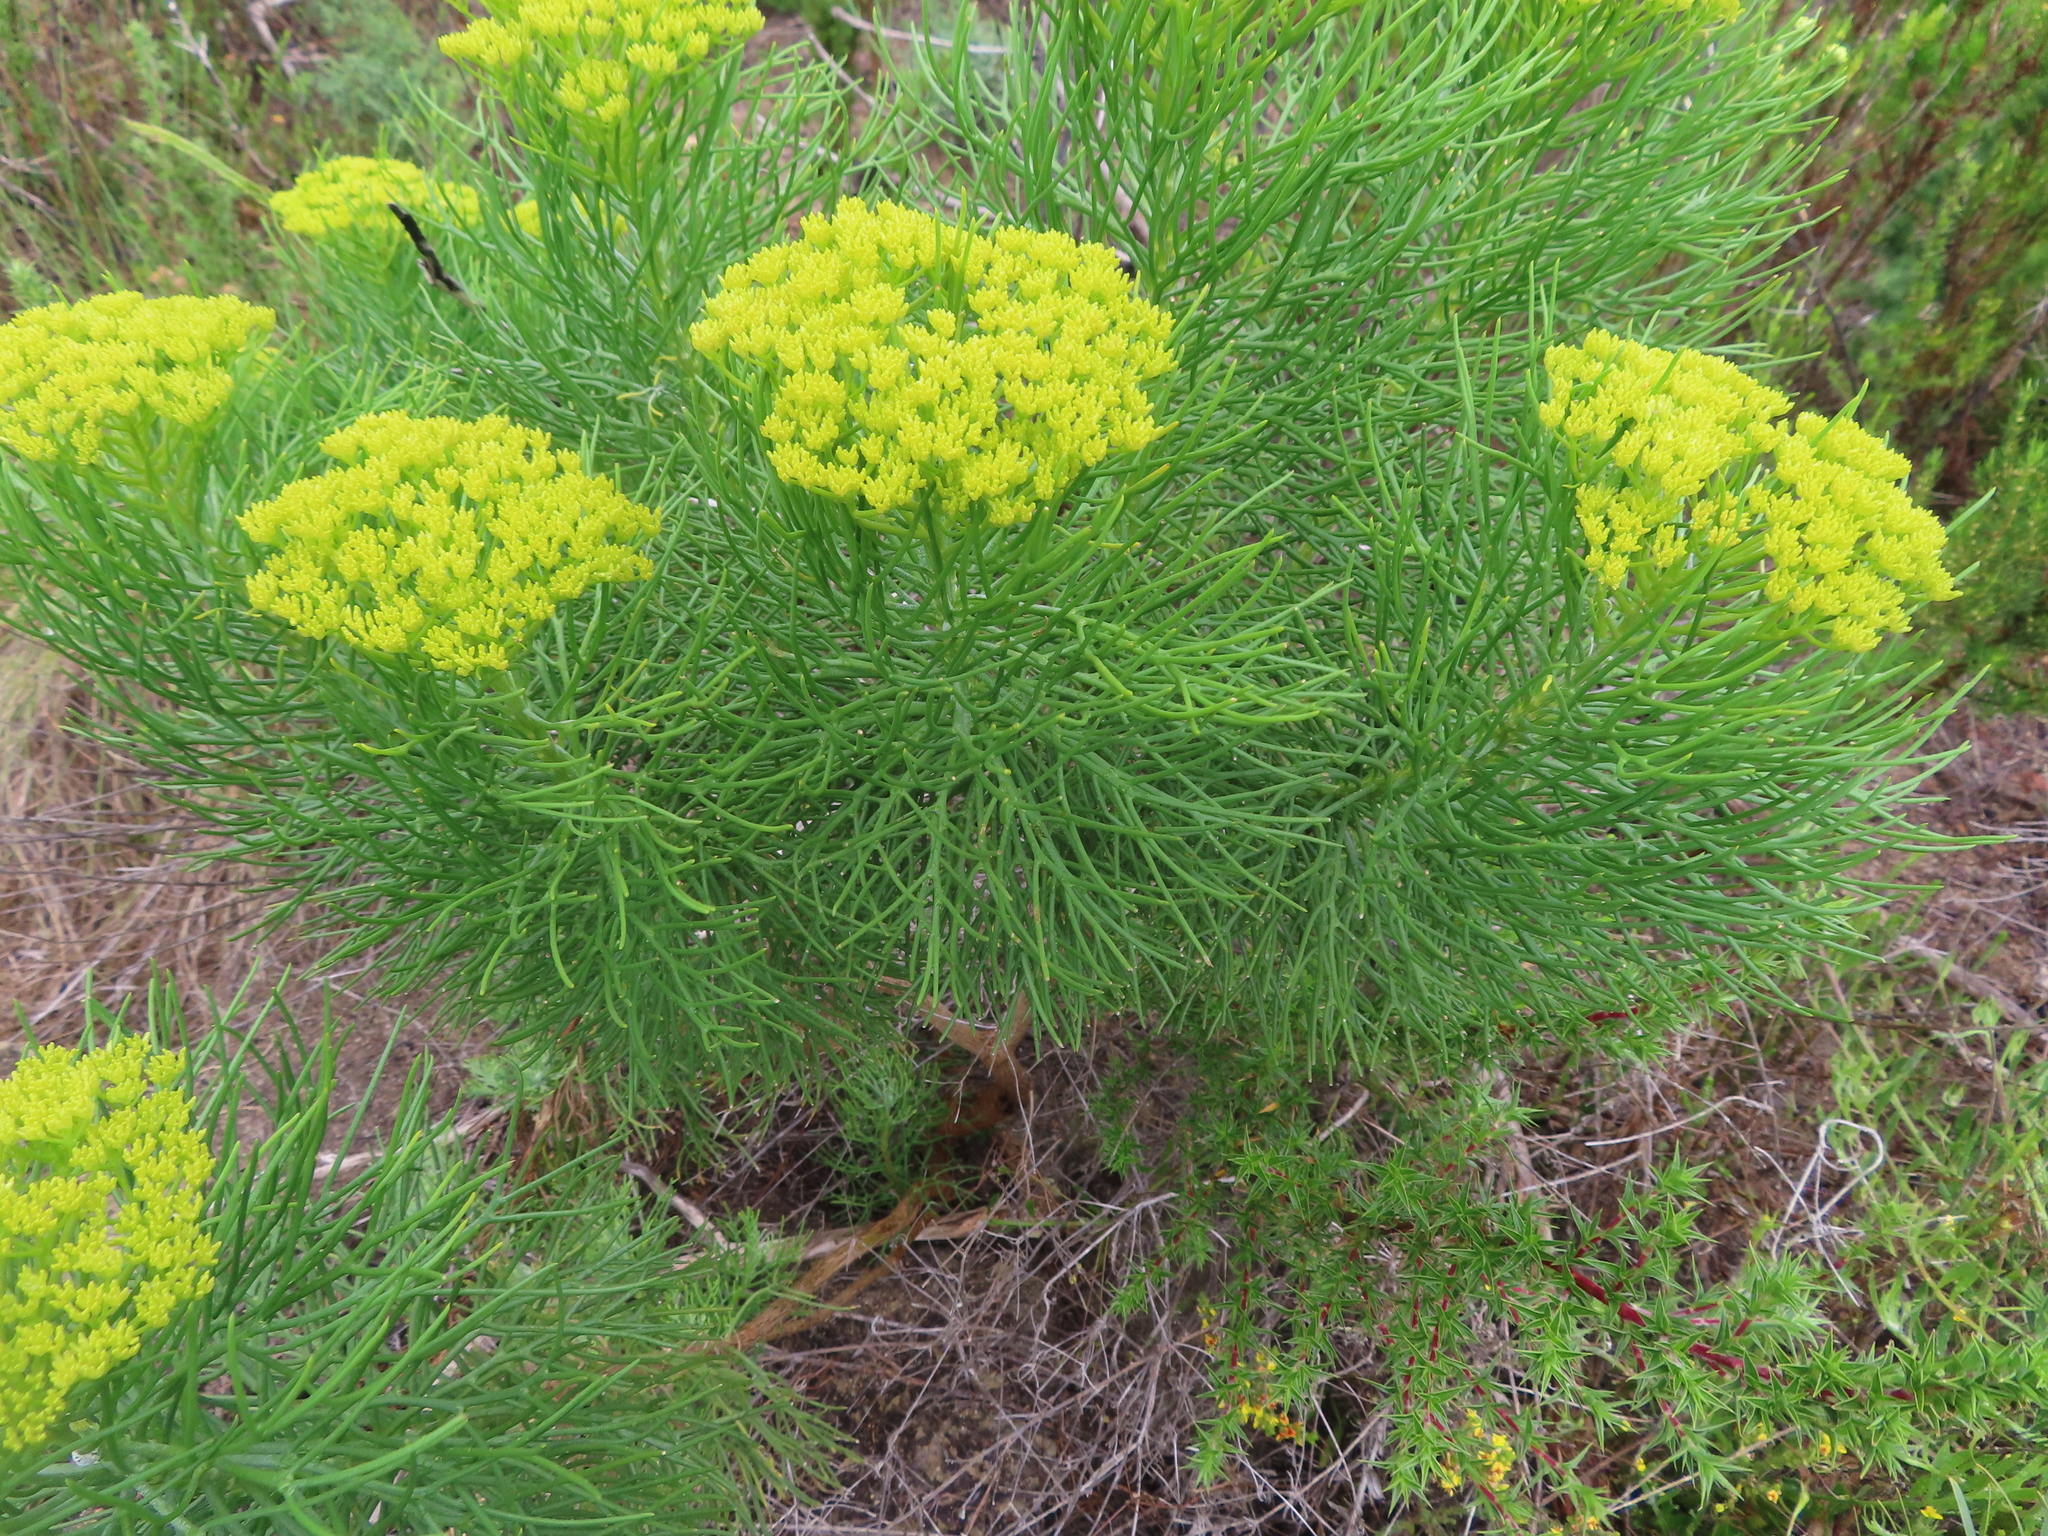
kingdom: Plantae
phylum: Tracheophyta
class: Magnoliopsida
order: Asterales
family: Asteraceae
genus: Hymenolepis
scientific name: Hymenolepis crithmifolia
